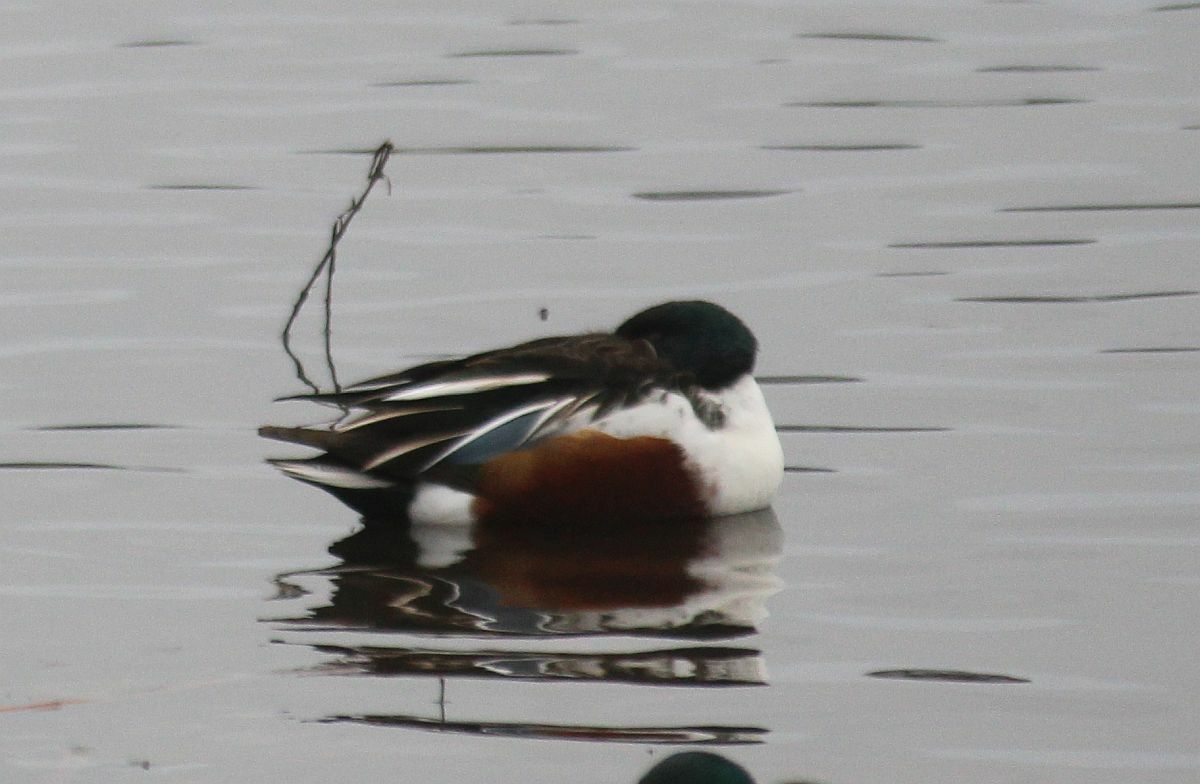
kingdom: Animalia
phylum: Chordata
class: Aves
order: Anseriformes
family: Anatidae
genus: Spatula
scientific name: Spatula clypeata
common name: Northern shoveler
